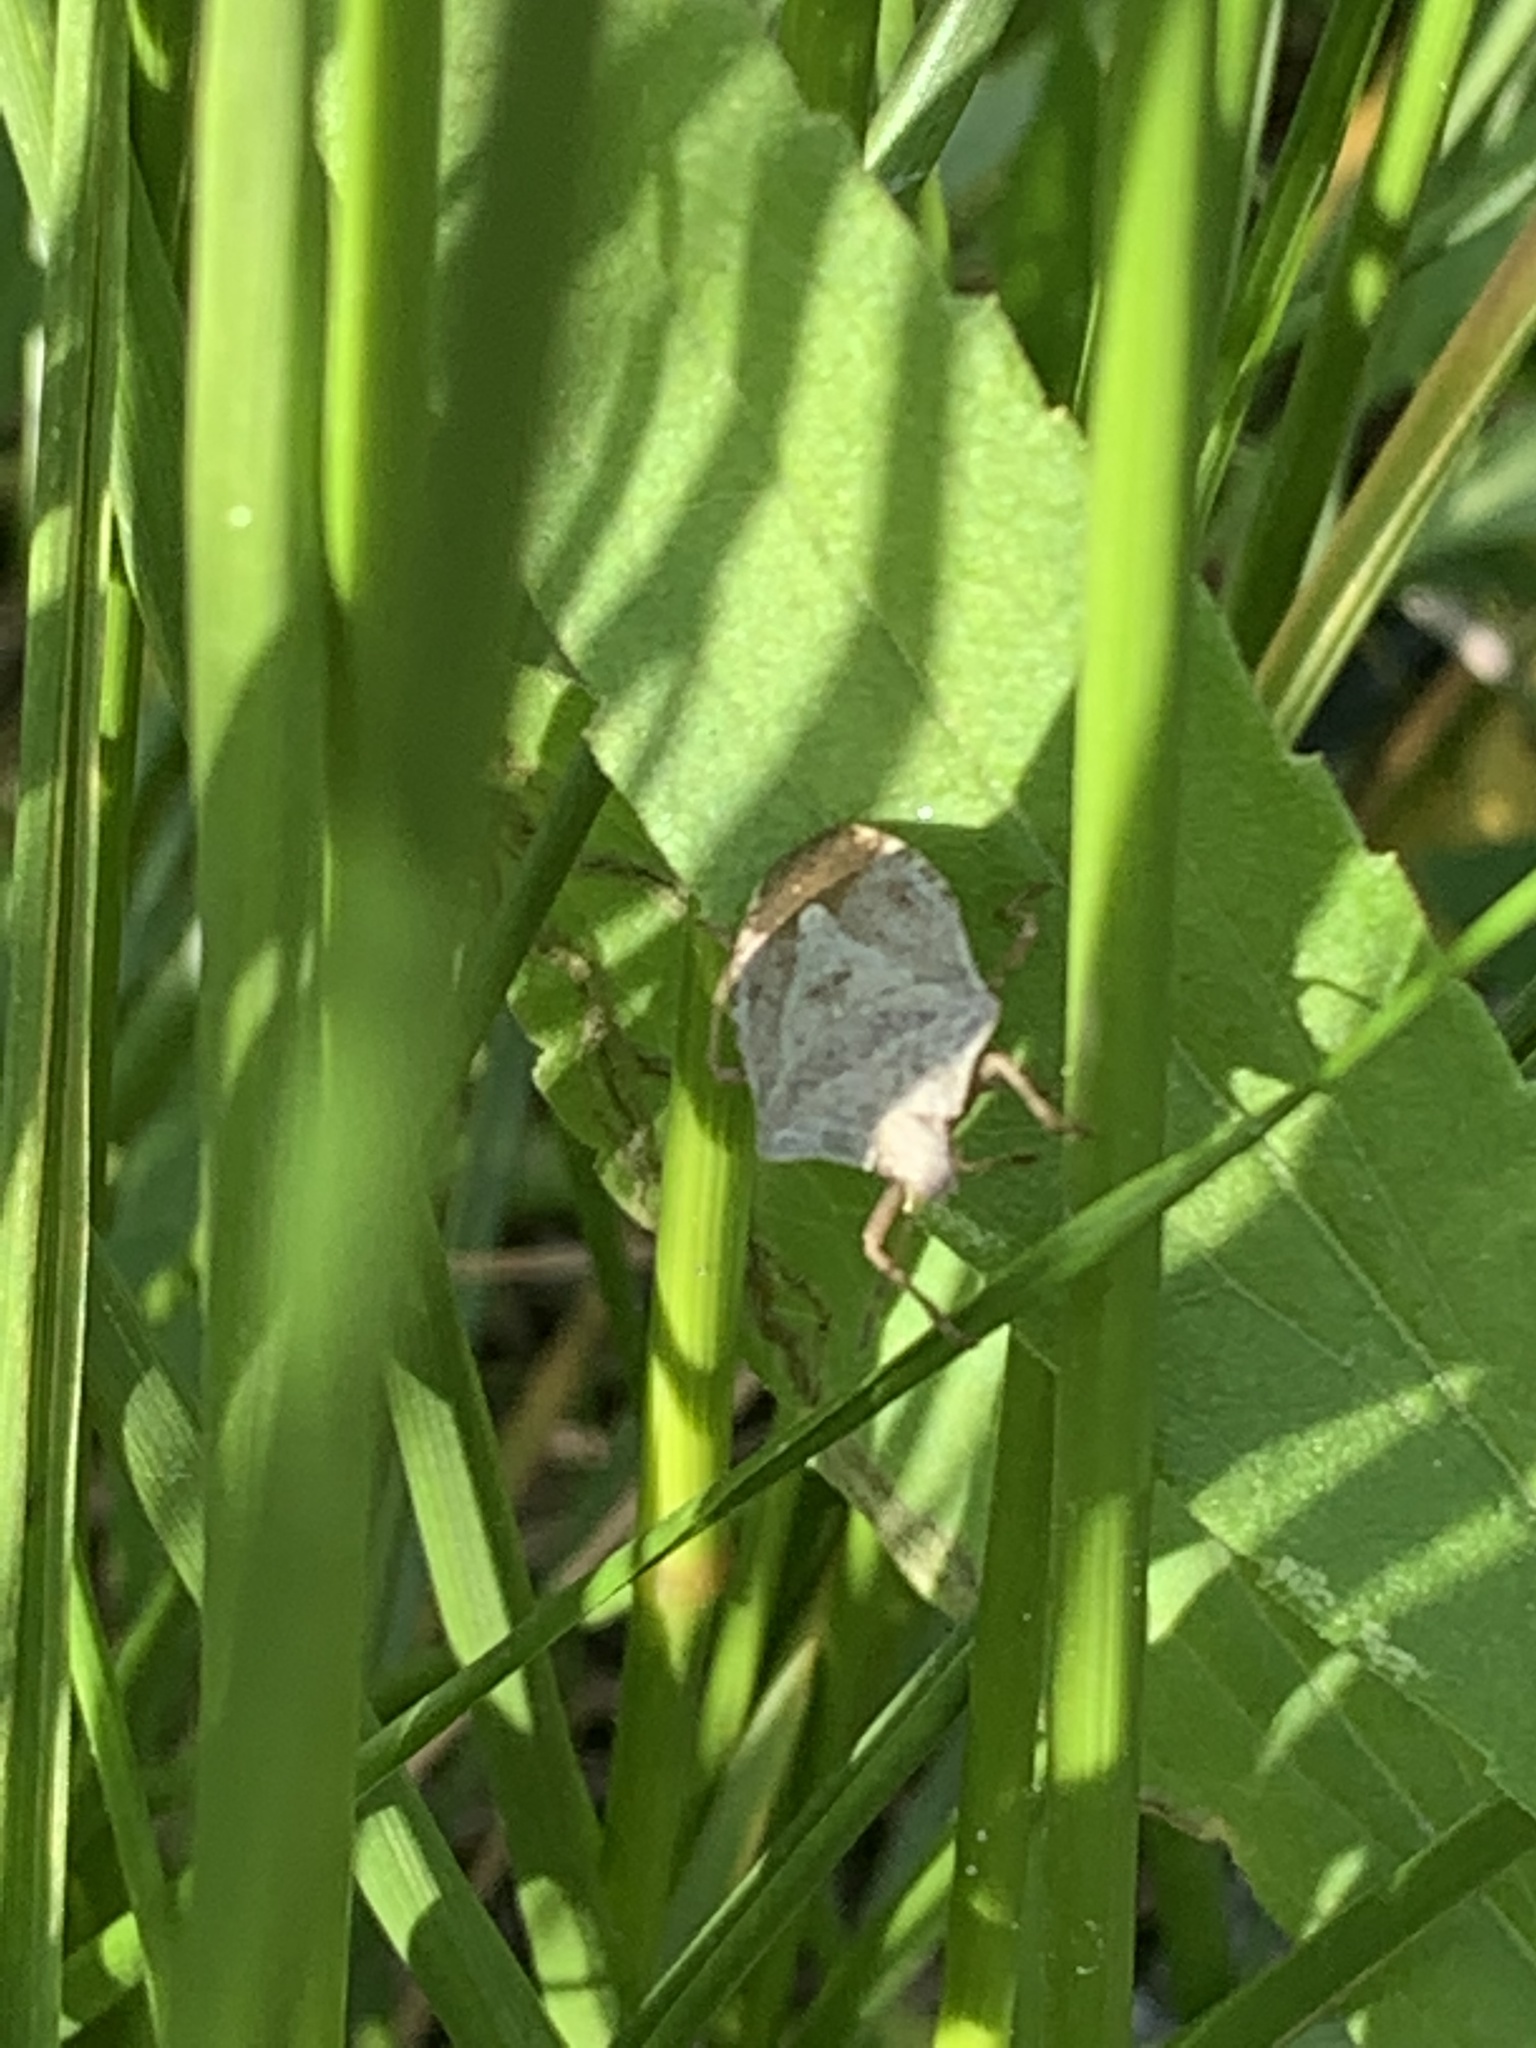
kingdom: Animalia
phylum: Arthropoda
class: Insecta
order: Hemiptera
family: Pentatomidae
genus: Euschistus
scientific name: Euschistus servus
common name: Brown stink bug
